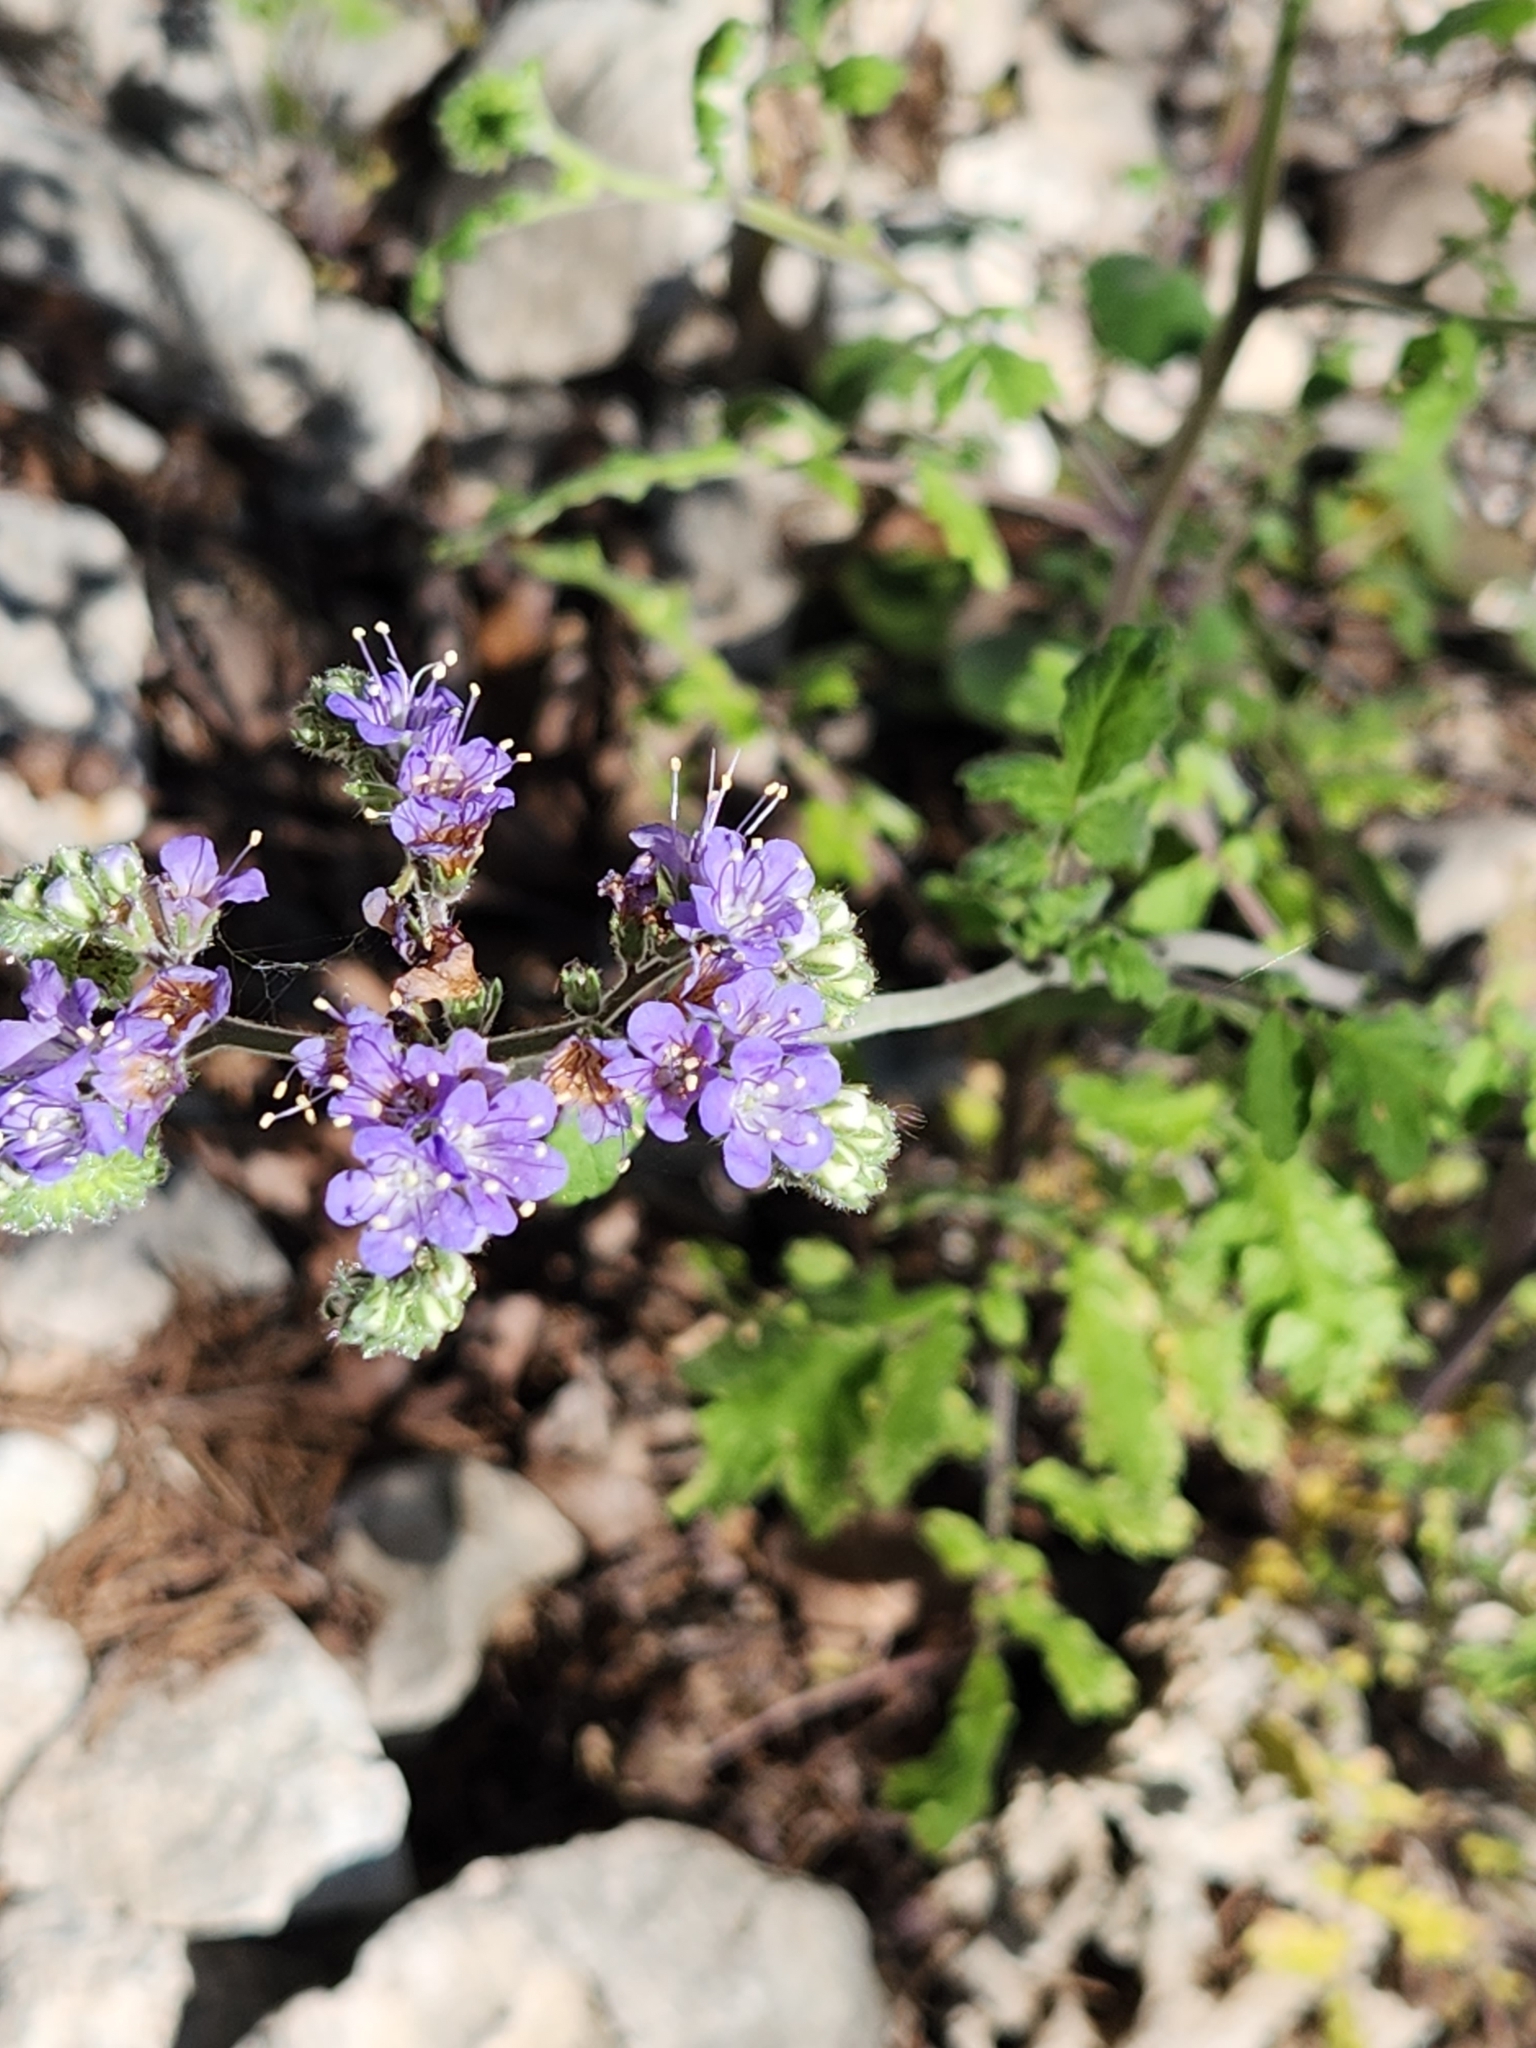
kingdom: Plantae
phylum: Tracheophyta
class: Magnoliopsida
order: Boraginales
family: Hydrophyllaceae
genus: Phacelia
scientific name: Phacelia congesta
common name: Blue curls
